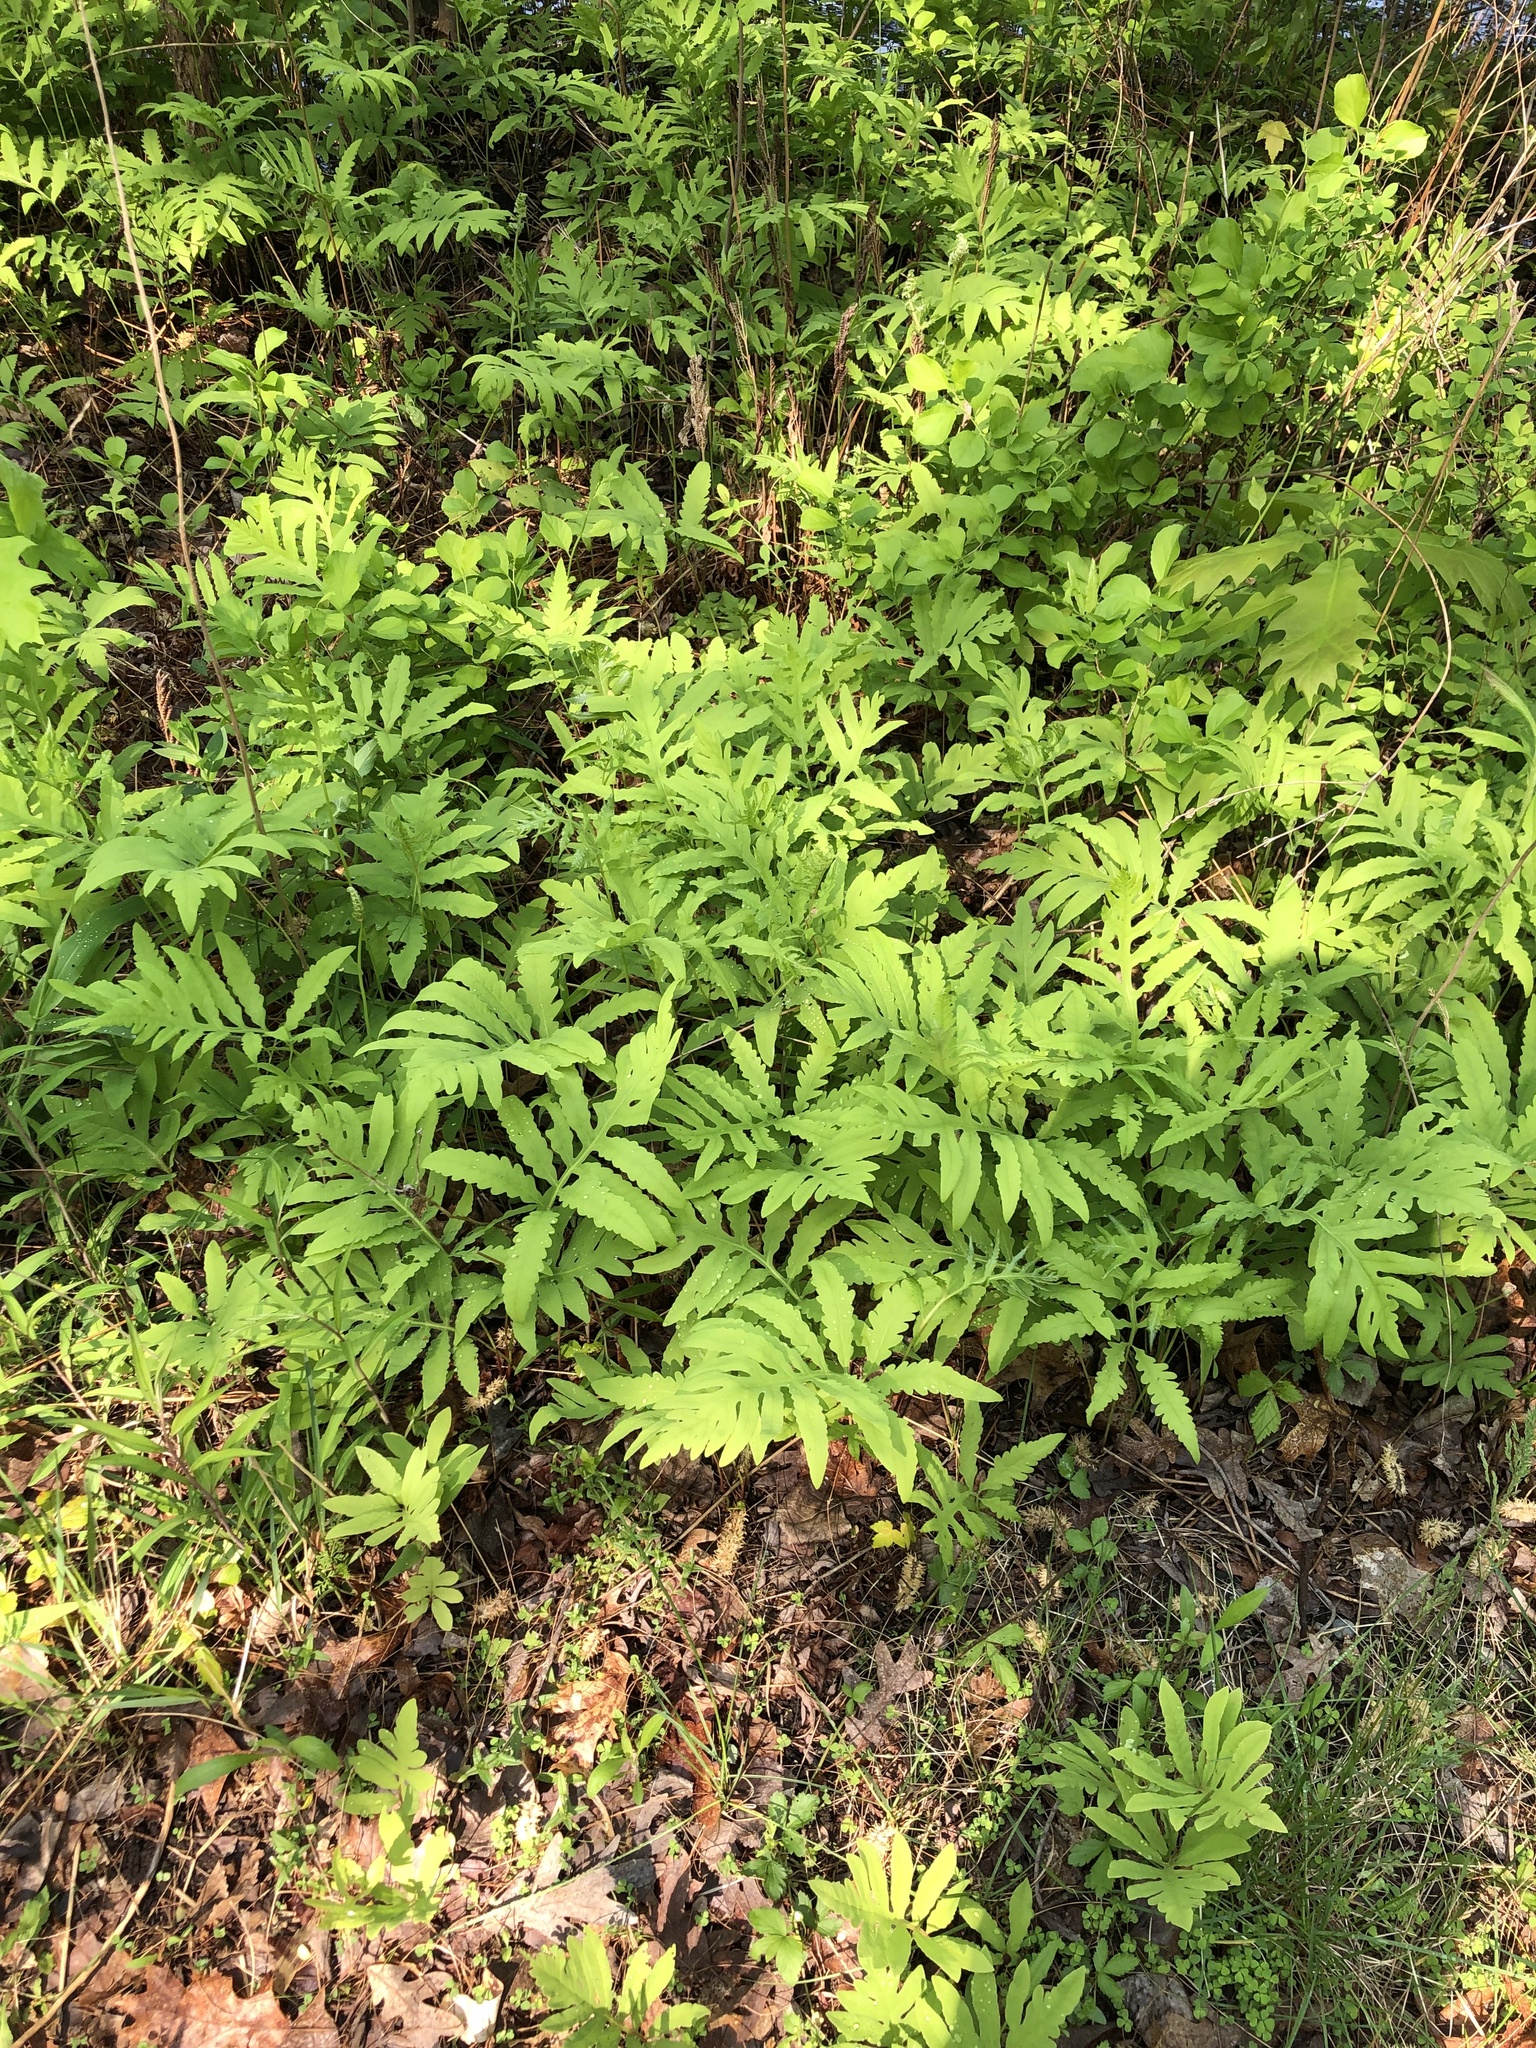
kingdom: Plantae
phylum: Tracheophyta
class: Polypodiopsida
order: Polypodiales
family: Onocleaceae
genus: Onoclea
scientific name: Onoclea sensibilis
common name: Sensitive fern
